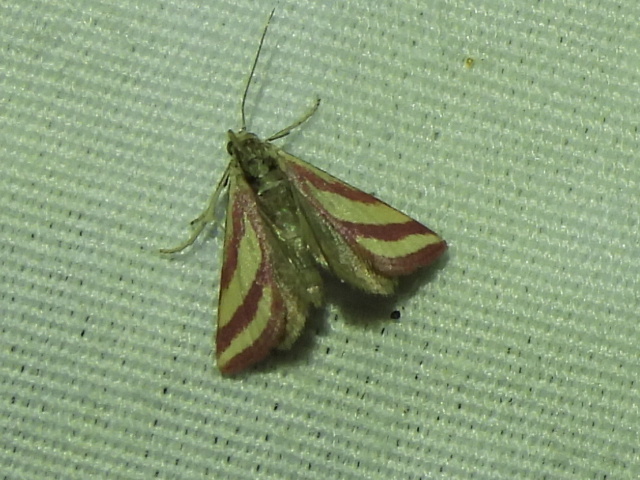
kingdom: Animalia
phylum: Arthropoda
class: Insecta
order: Lepidoptera
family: Crambidae
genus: Microtheoris
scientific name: Microtheoris vibicalis
